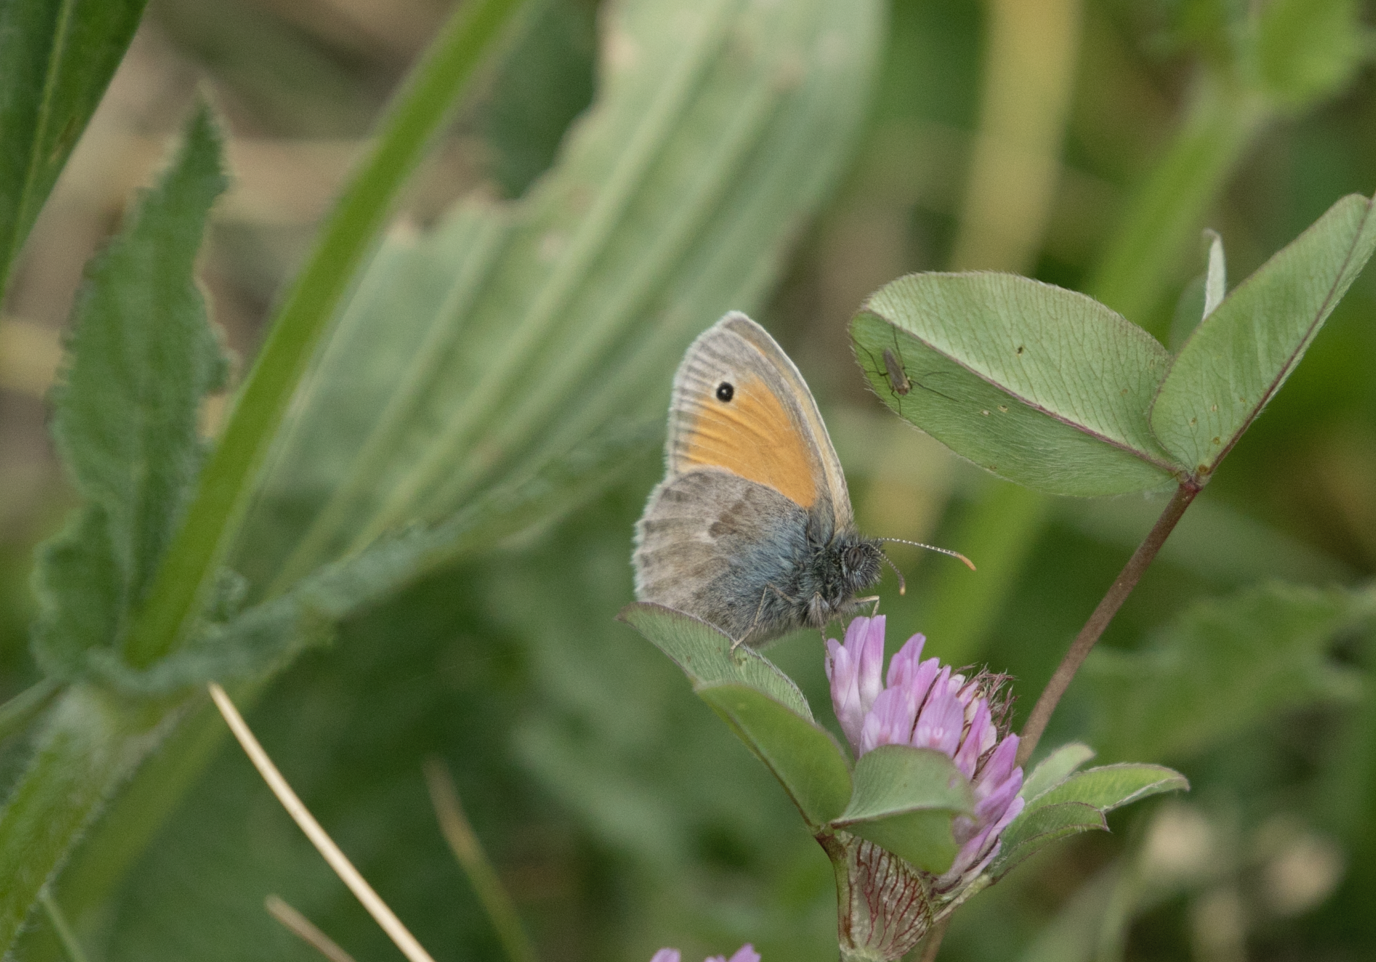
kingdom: Animalia
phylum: Arthropoda
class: Insecta
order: Lepidoptera
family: Nymphalidae
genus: Coenonympha
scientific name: Coenonympha pamphilus
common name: Small heath
